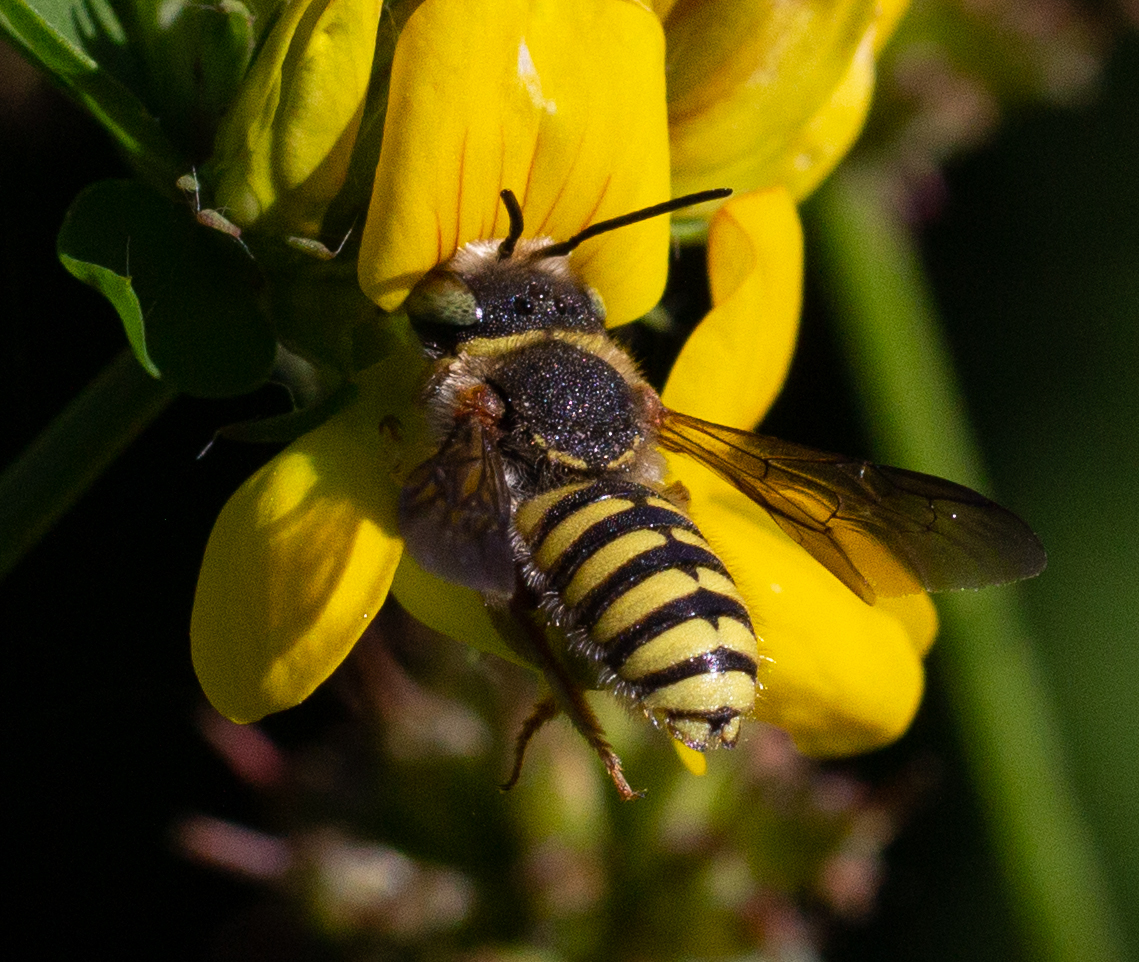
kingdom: Animalia
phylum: Arthropoda
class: Insecta
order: Hymenoptera
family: Megachilidae
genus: Anthidium
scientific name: Anthidium oblongatum
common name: Oblong wool carder bee
